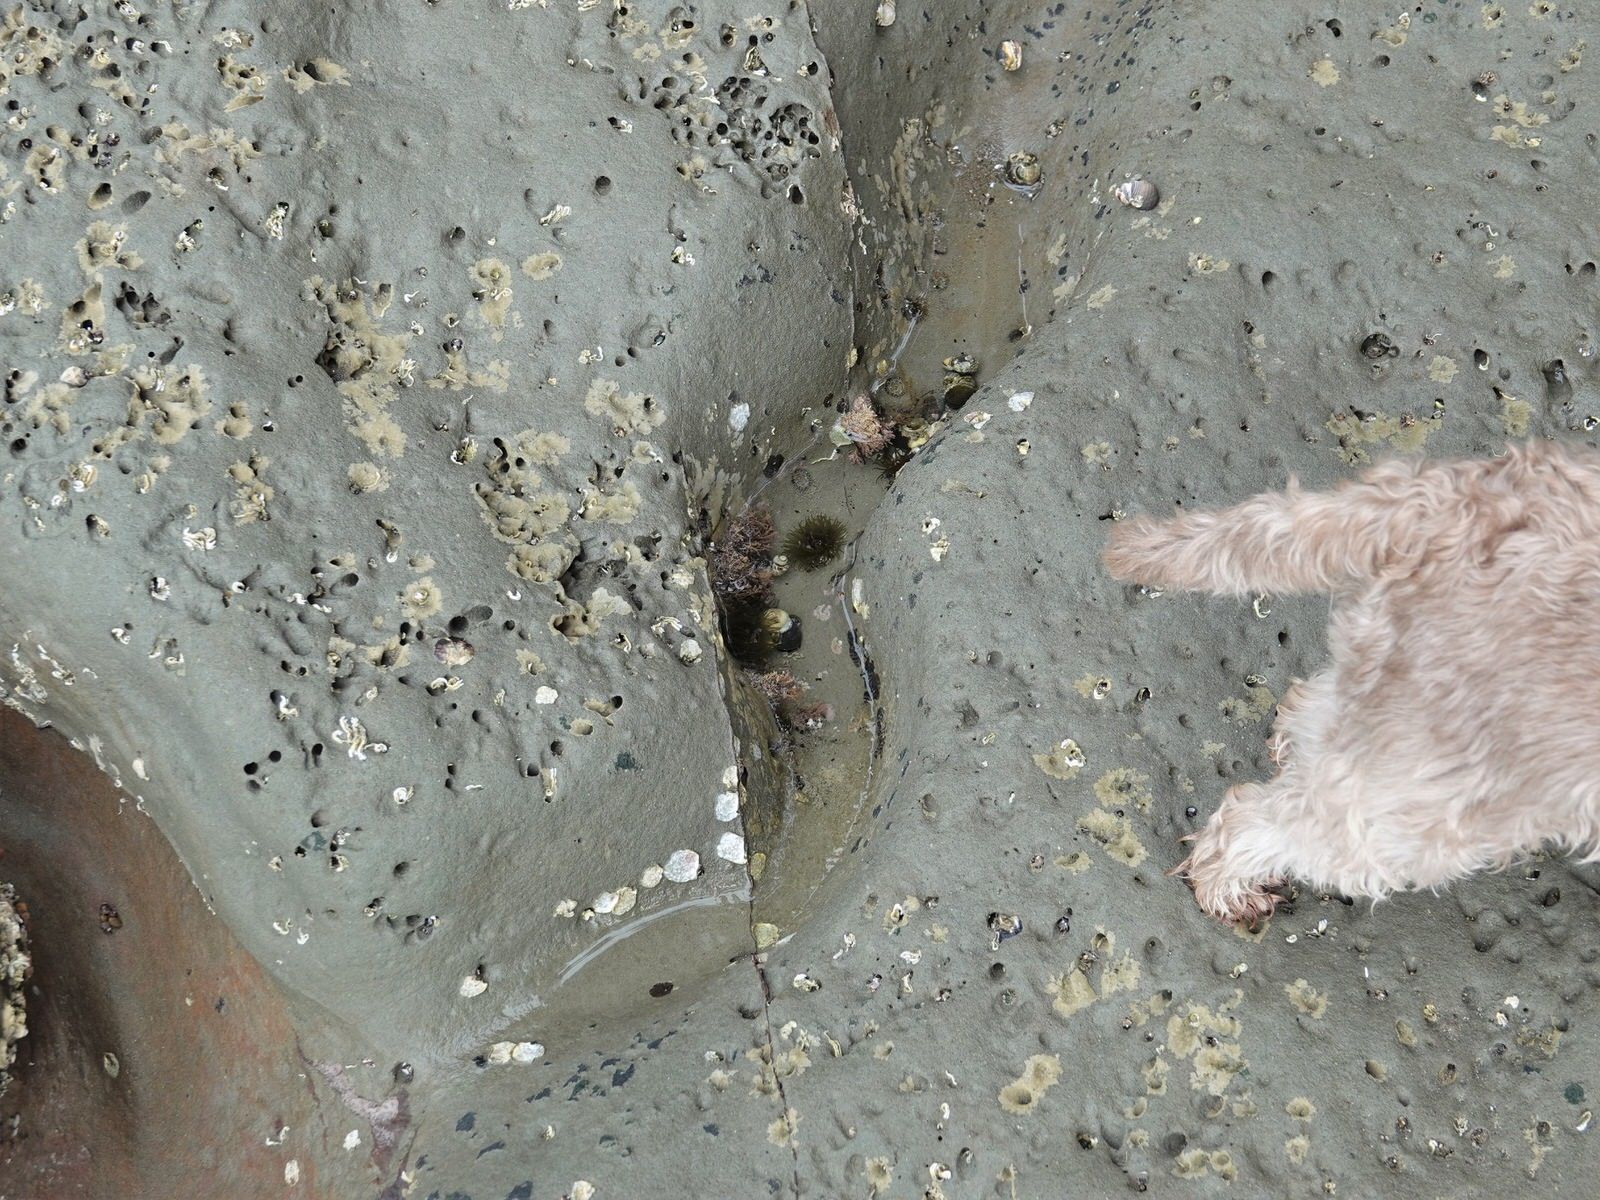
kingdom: Animalia
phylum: Cnidaria
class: Anthozoa
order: Actiniaria
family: Actiniidae
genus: Isactinia
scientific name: Isactinia olivacea
